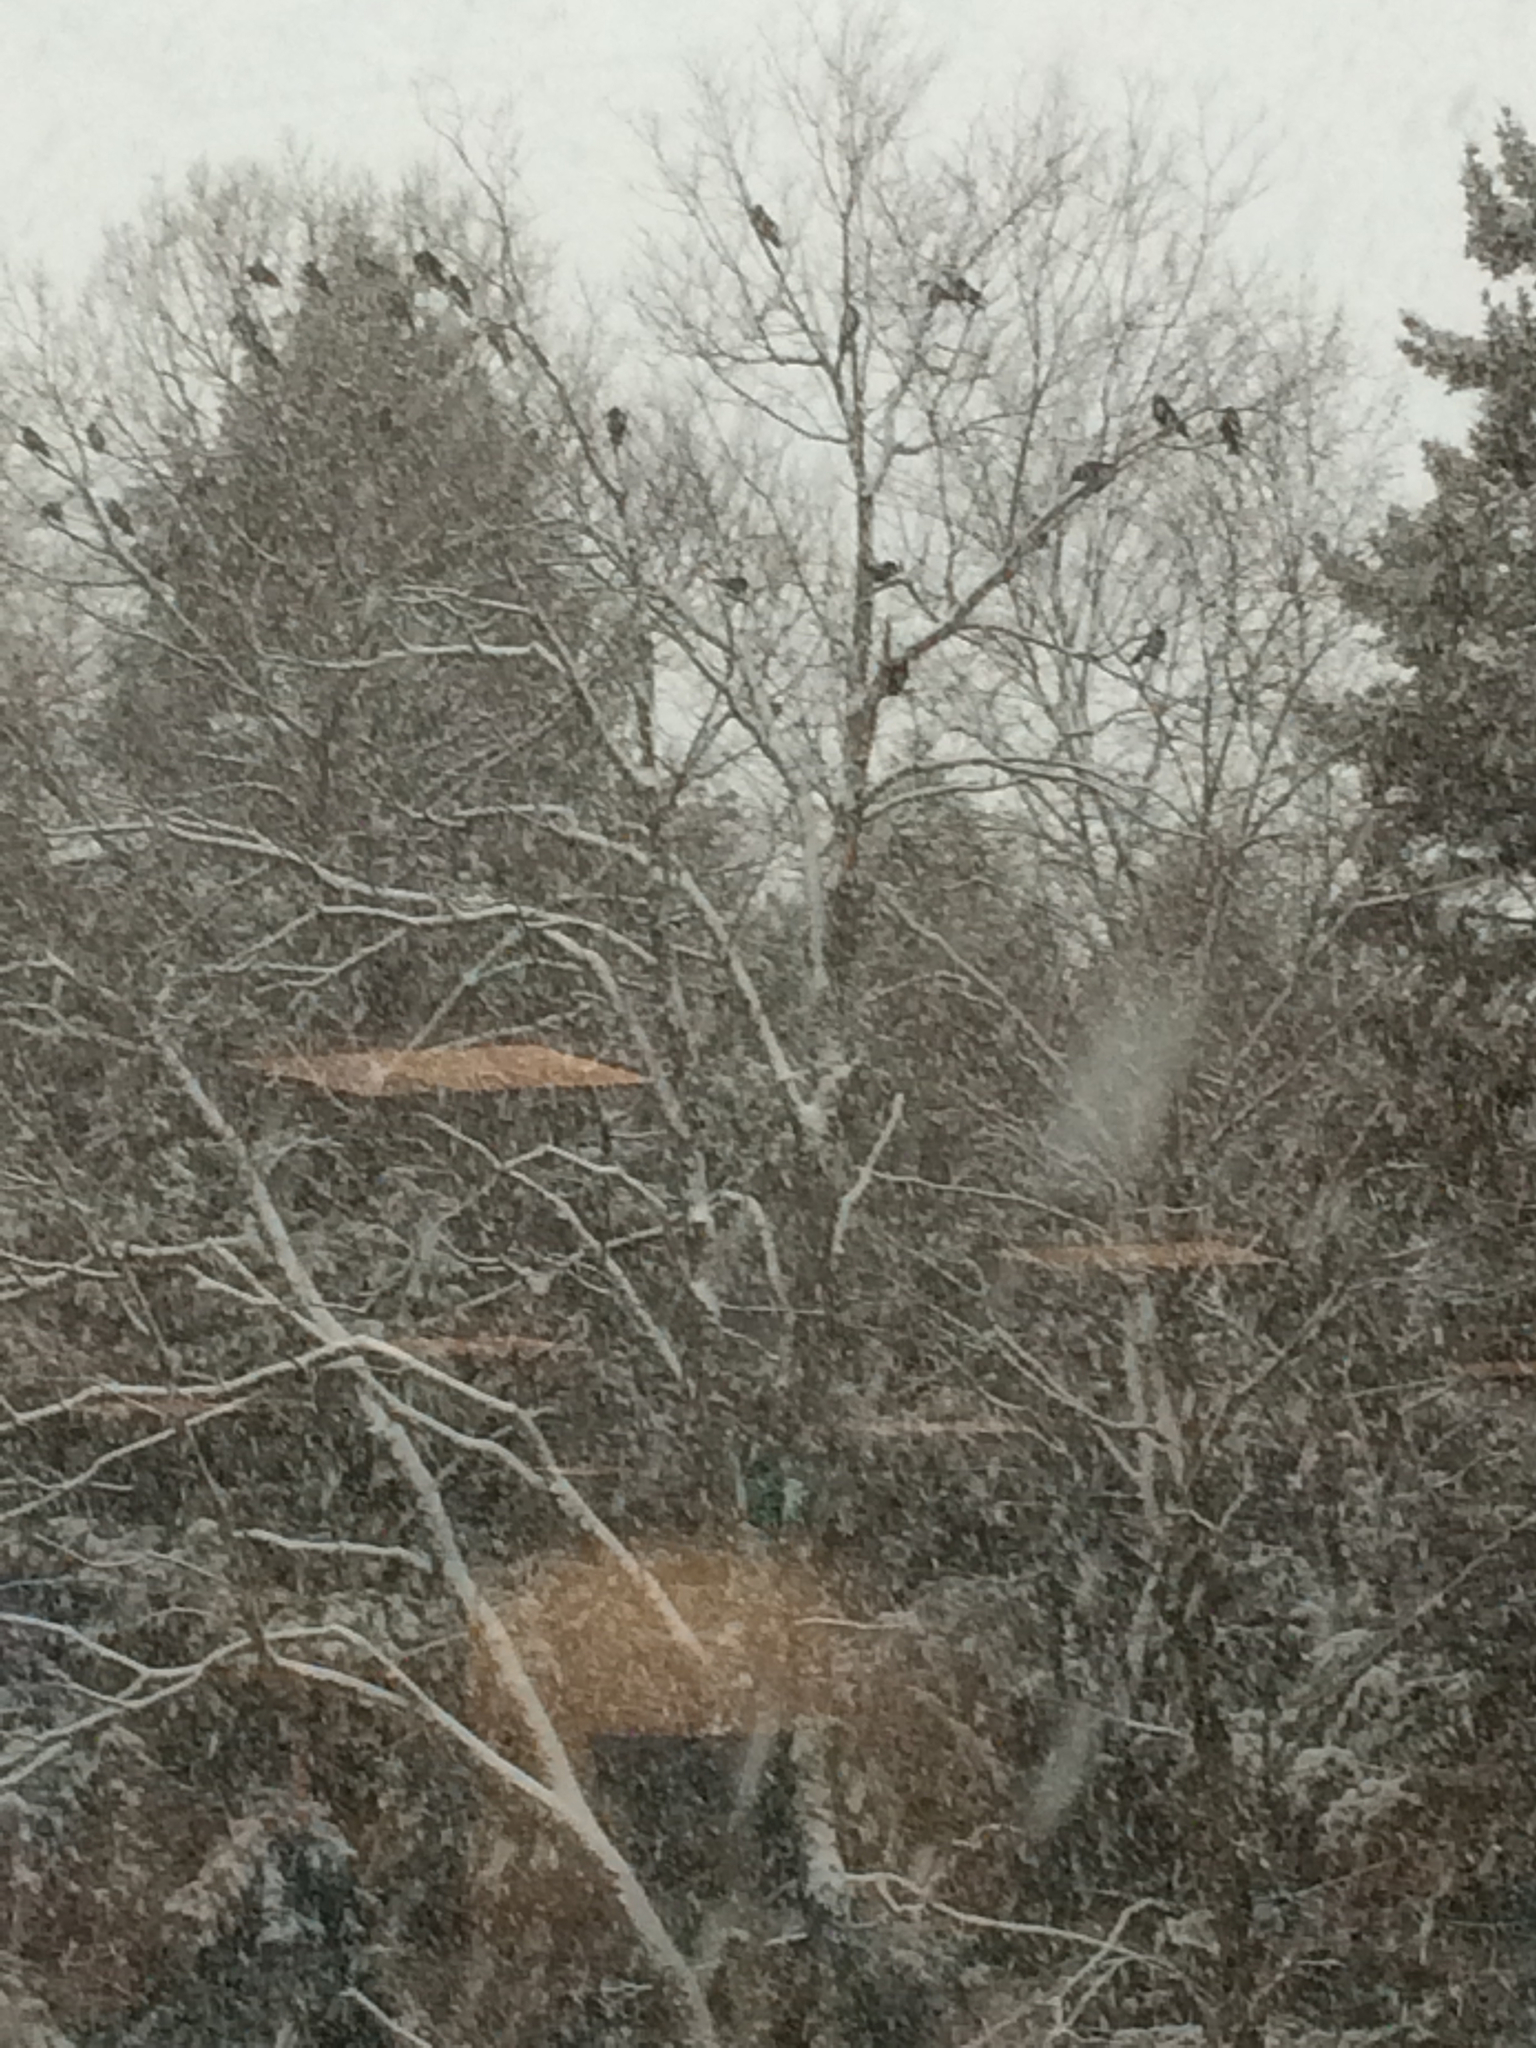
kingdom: Animalia
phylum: Chordata
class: Aves
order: Passeriformes
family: Corvidae
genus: Corvus
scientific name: Corvus brachyrhynchos
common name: American crow
